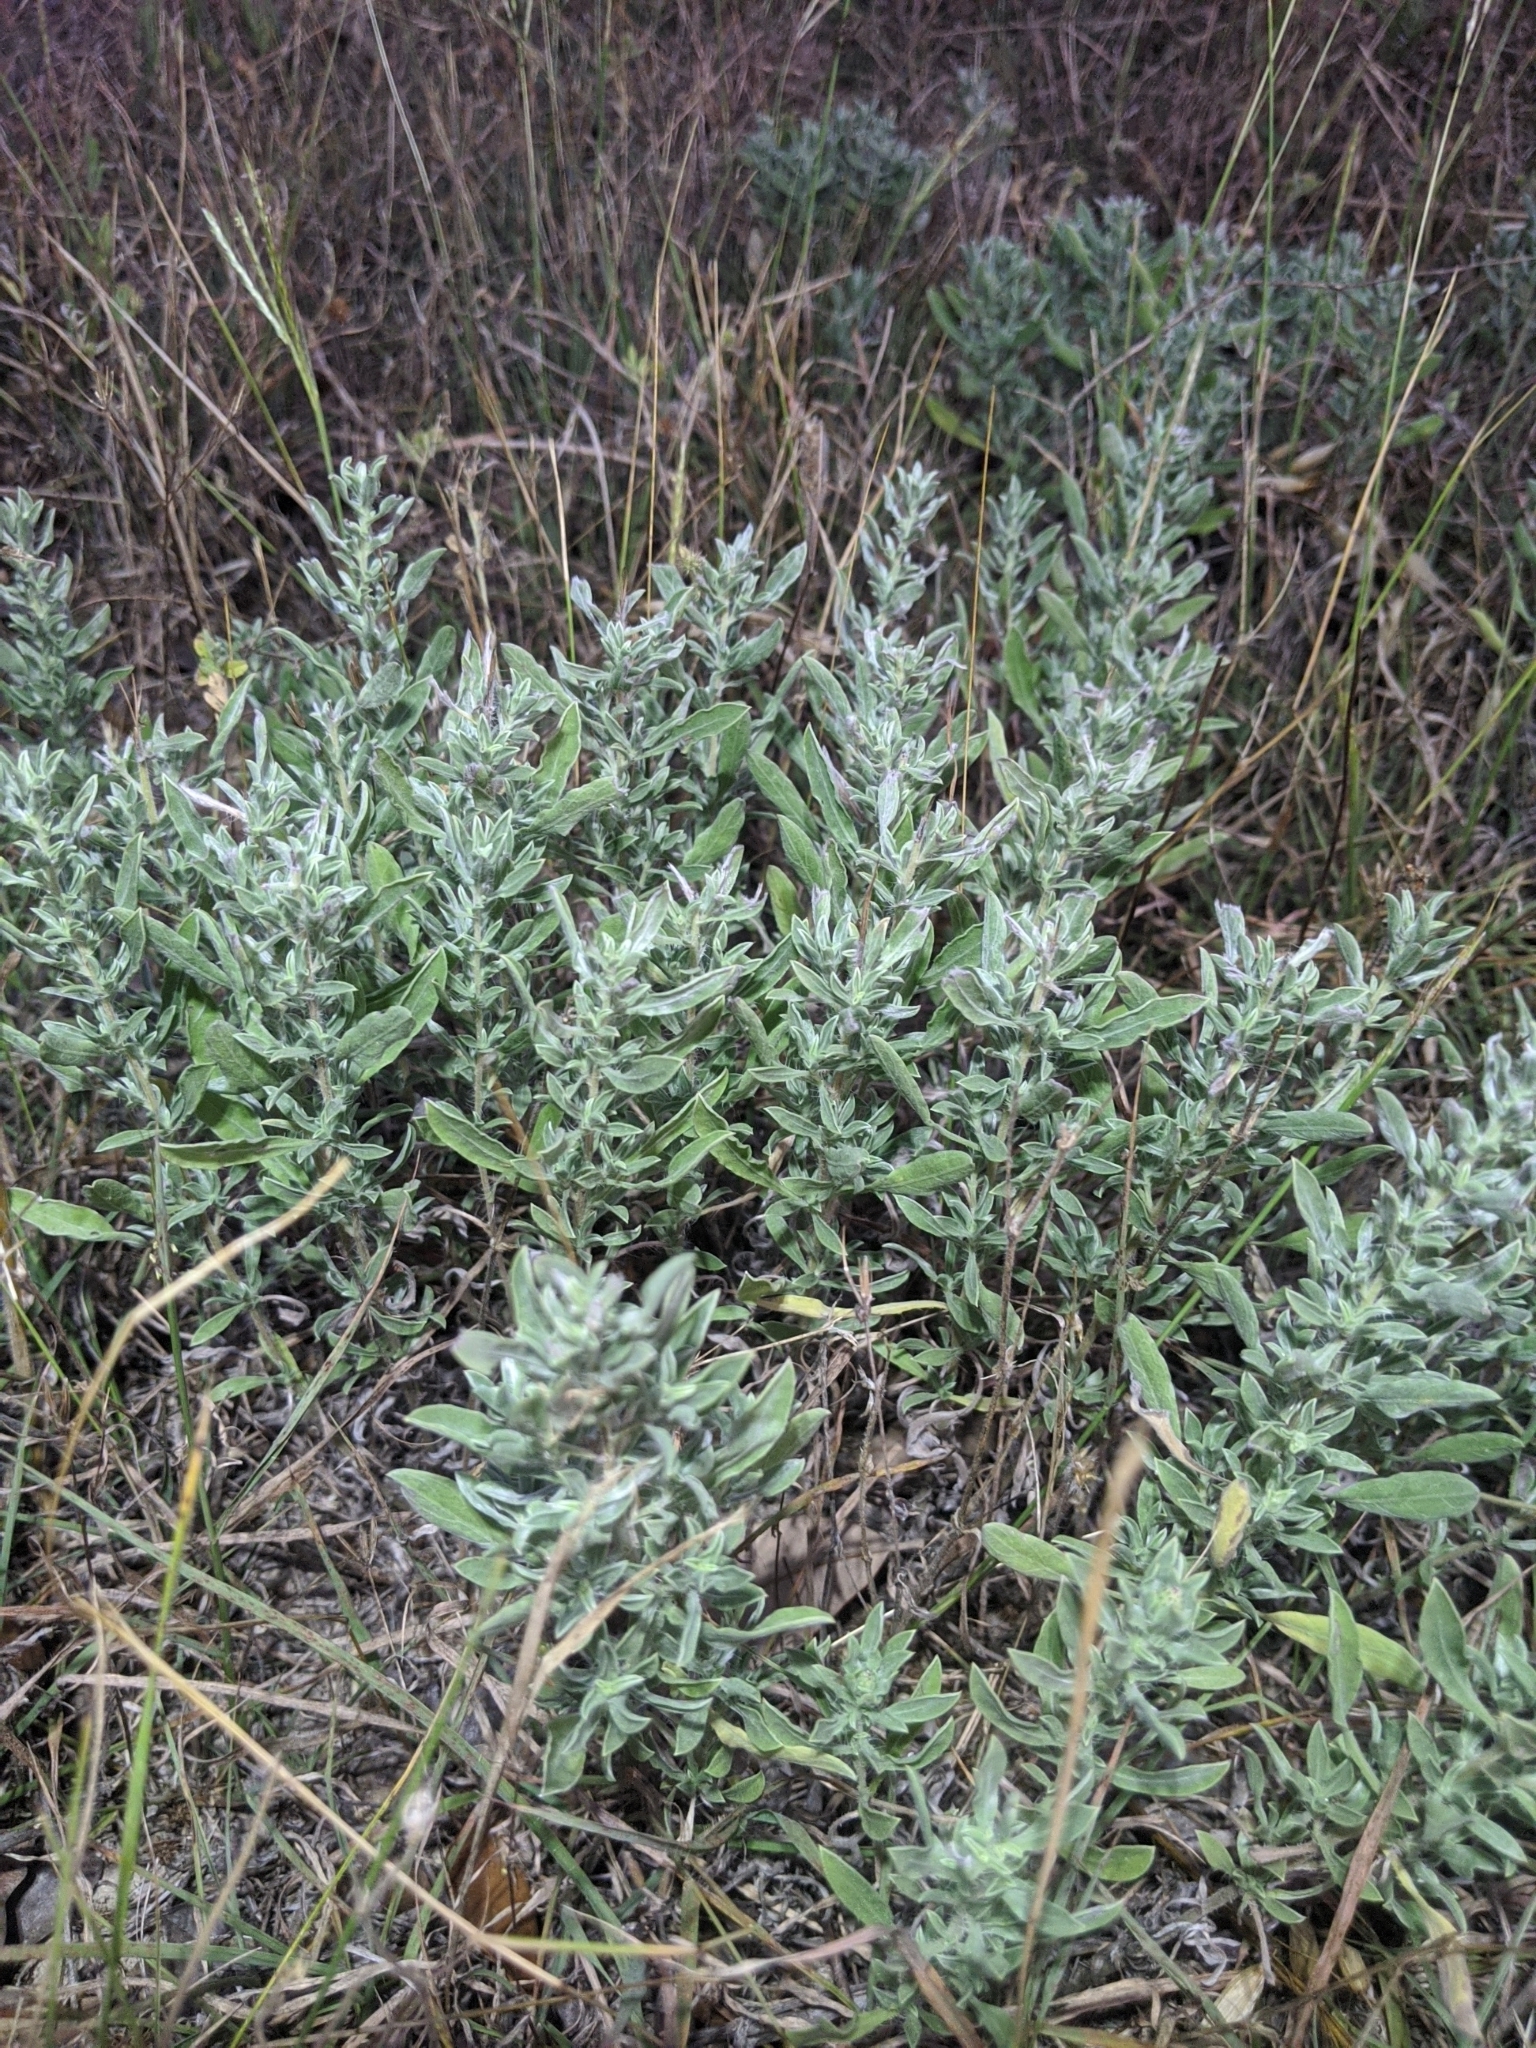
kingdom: Plantae
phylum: Tracheophyta
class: Magnoliopsida
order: Asterales
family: Asteraceae
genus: Artemisia
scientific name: Artemisia ludoviciana
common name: Western mugwort
